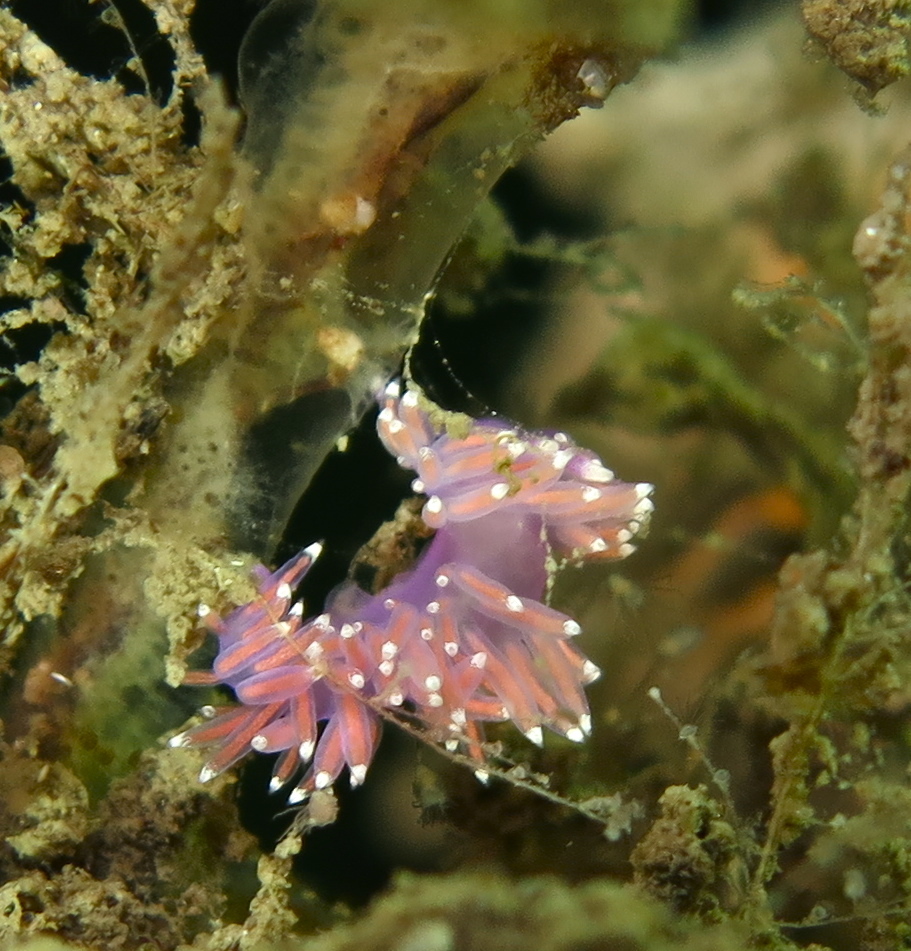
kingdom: Animalia
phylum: Mollusca
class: Gastropoda
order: Nudibranchia
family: Flabellinidae
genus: Edmundsella
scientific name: Edmundsella pedata
